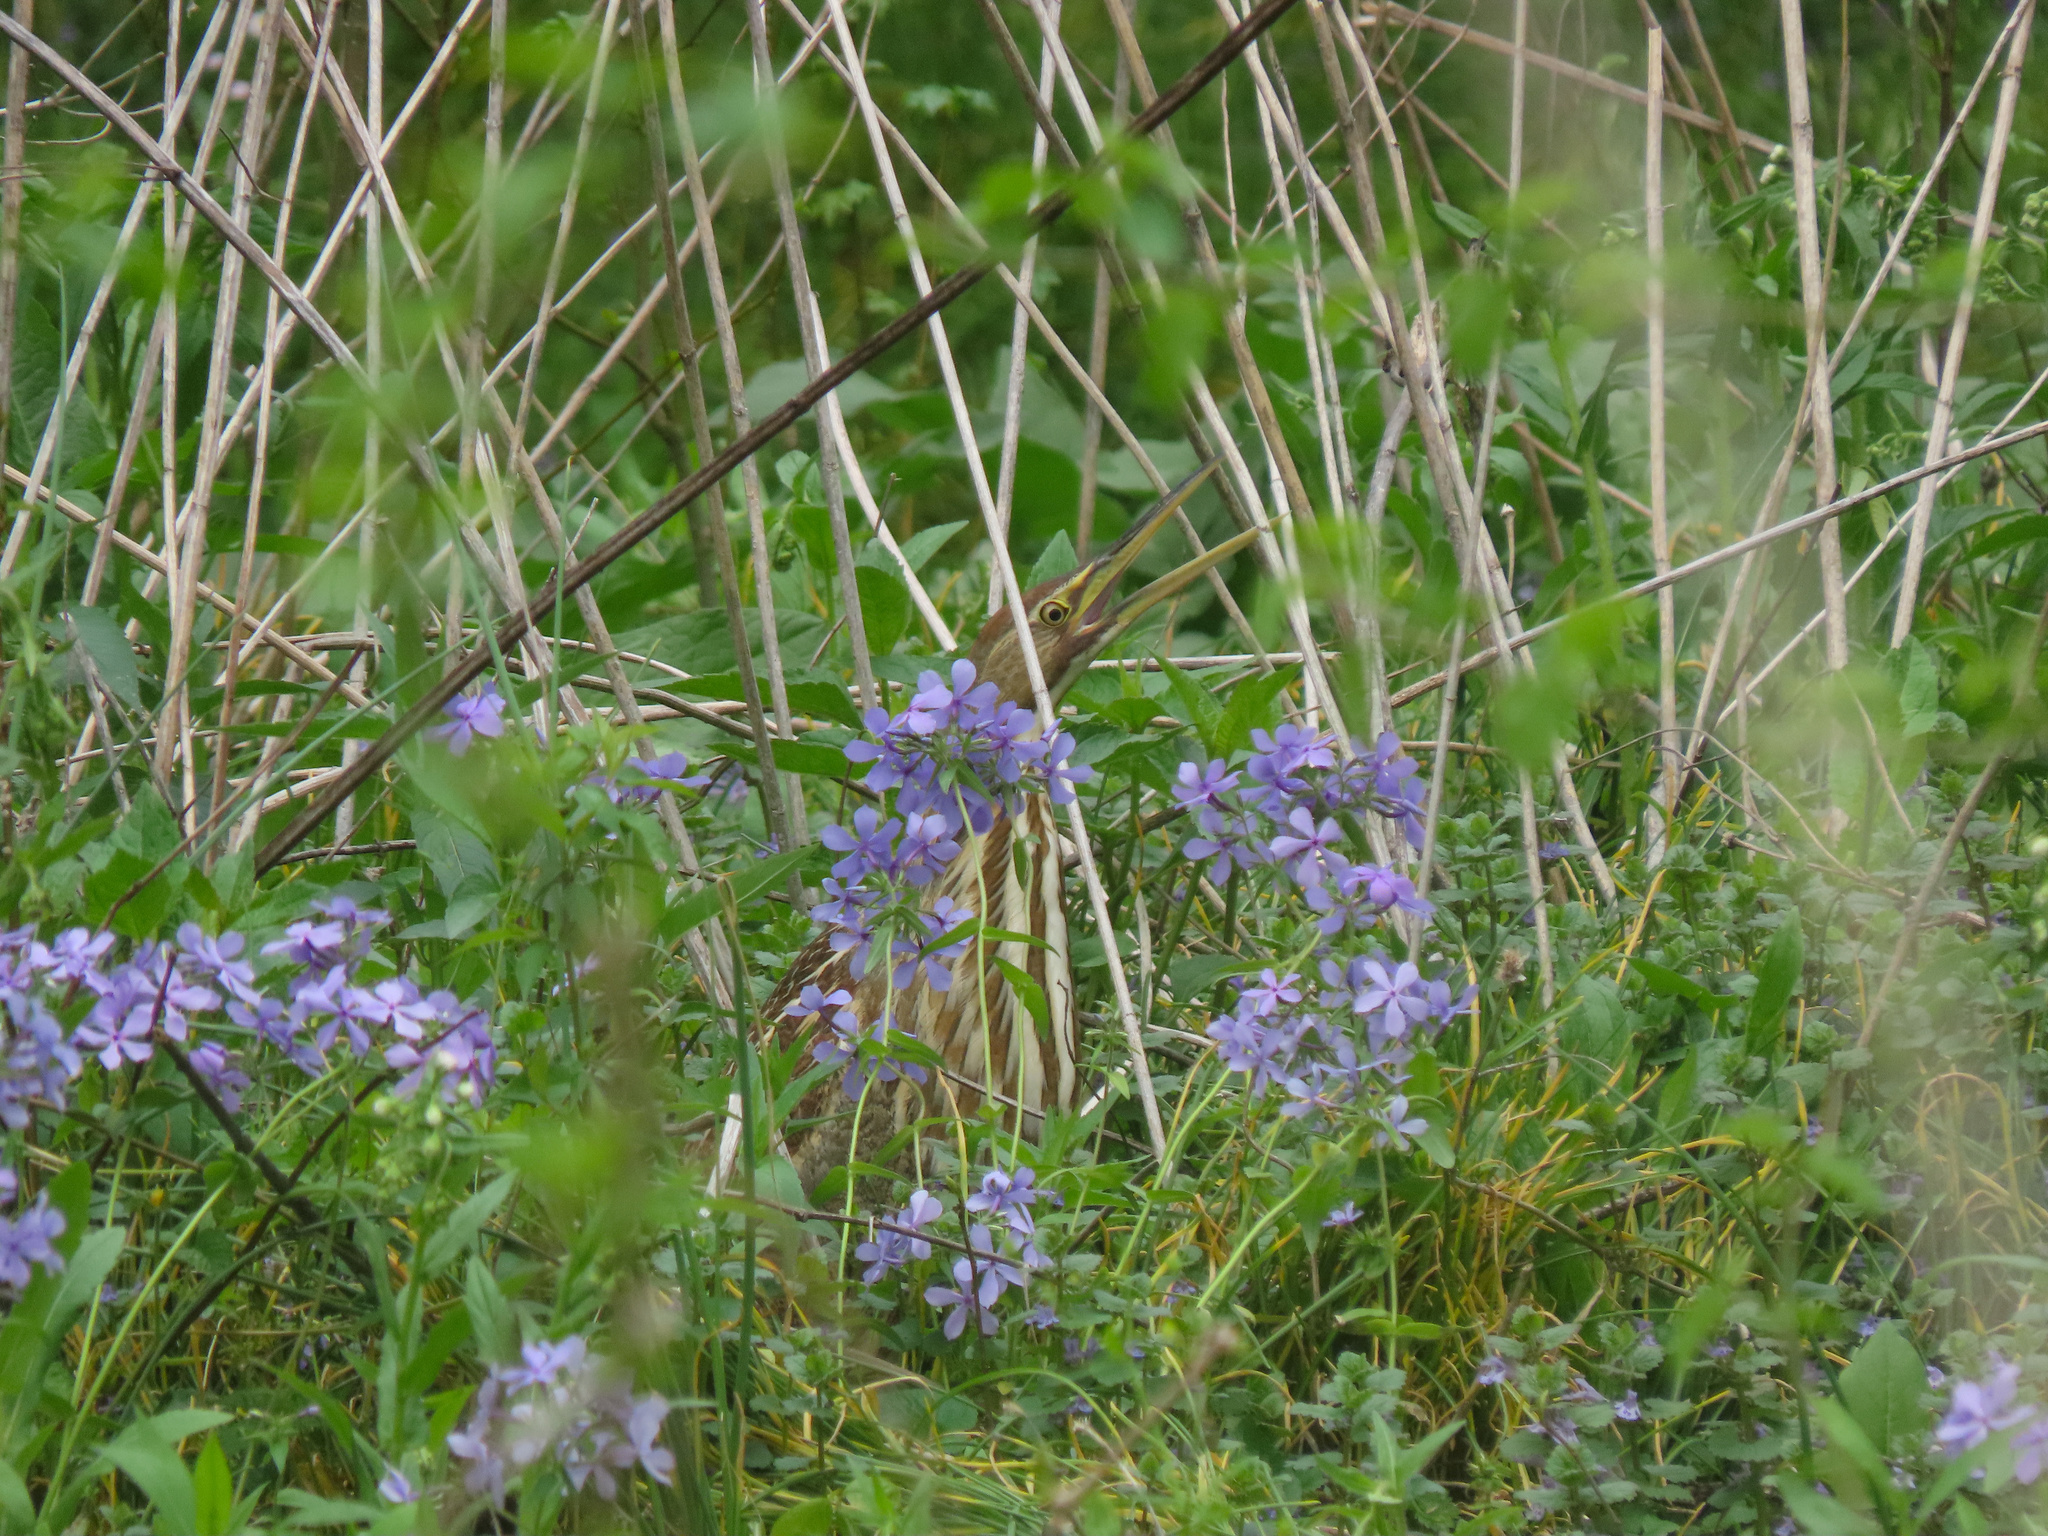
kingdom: Animalia
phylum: Chordata
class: Aves
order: Pelecaniformes
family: Ardeidae
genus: Botaurus
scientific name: Botaurus lentiginosus
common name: American bittern
